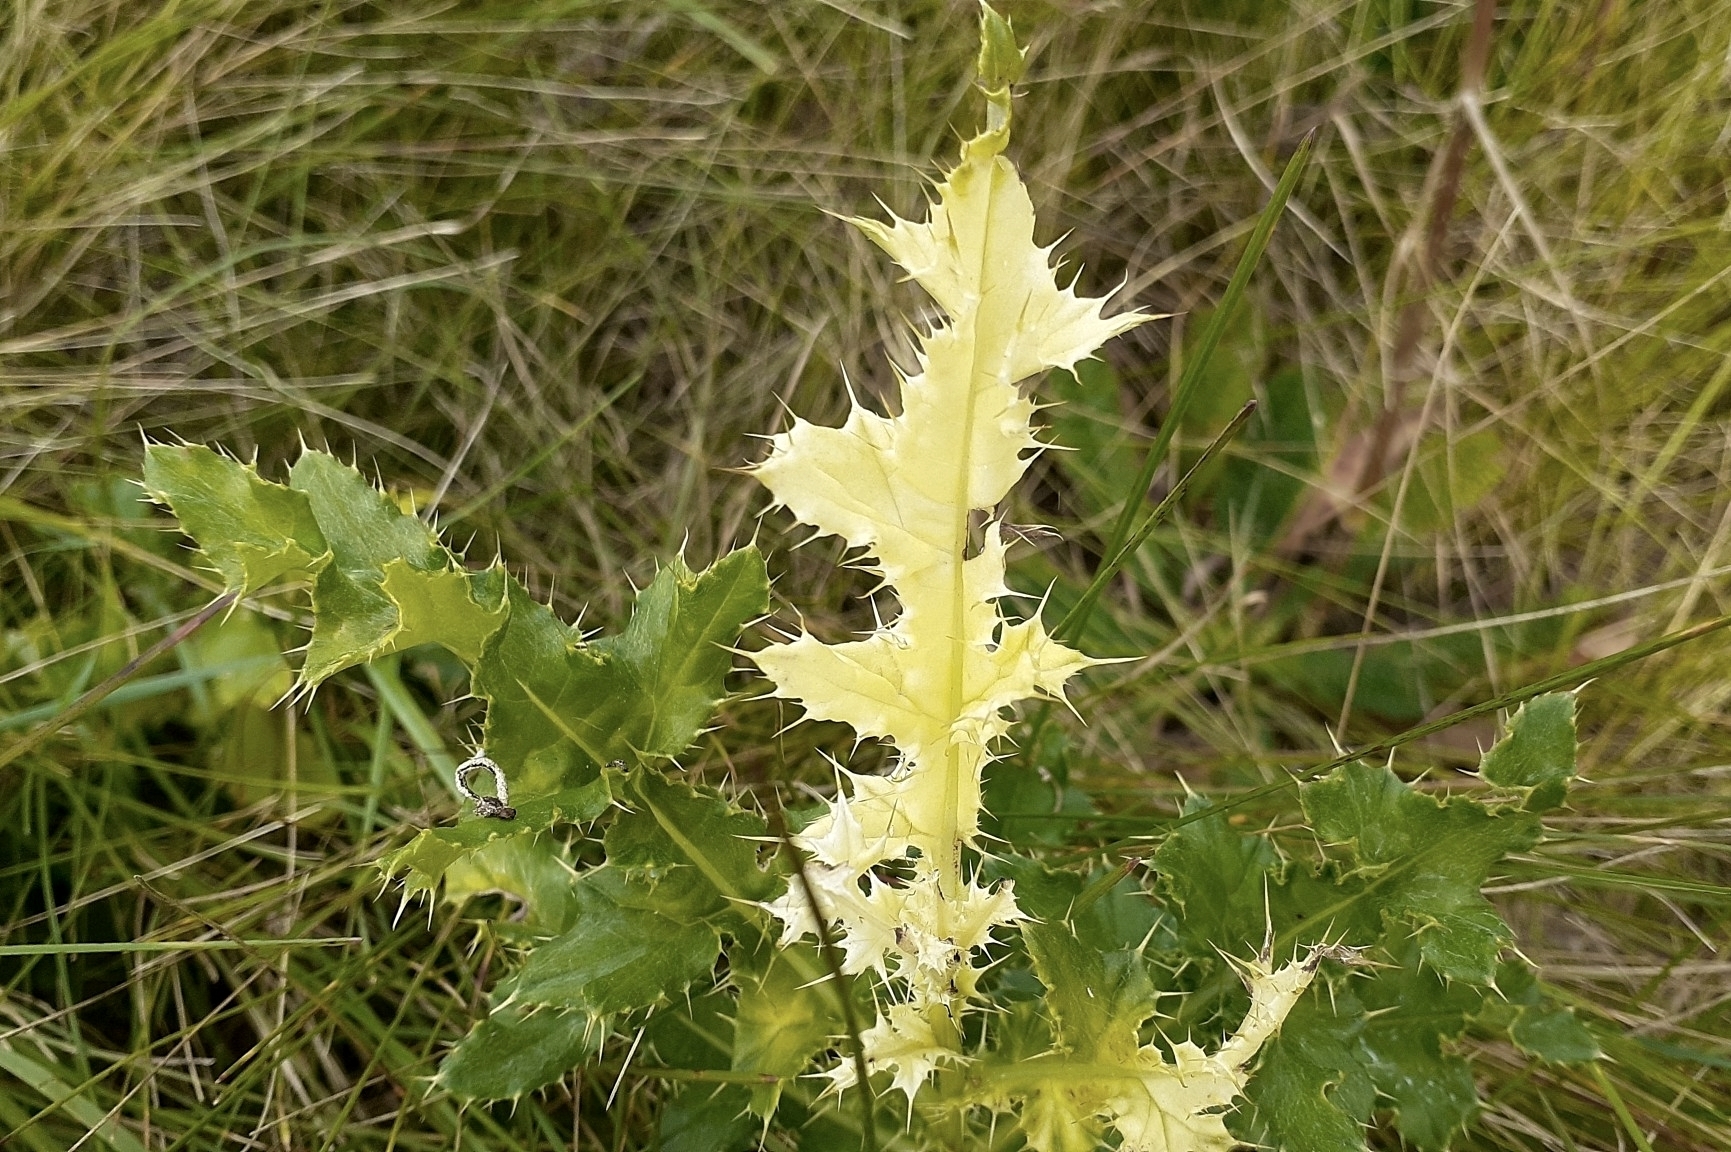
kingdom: Bacteria
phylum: Proteobacteria
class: Gammaproteobacteria
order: Pseudomonadales
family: Pseudomonadaceae
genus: Pseudomonas
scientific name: Pseudomonas syringae
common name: Bacterial speck
